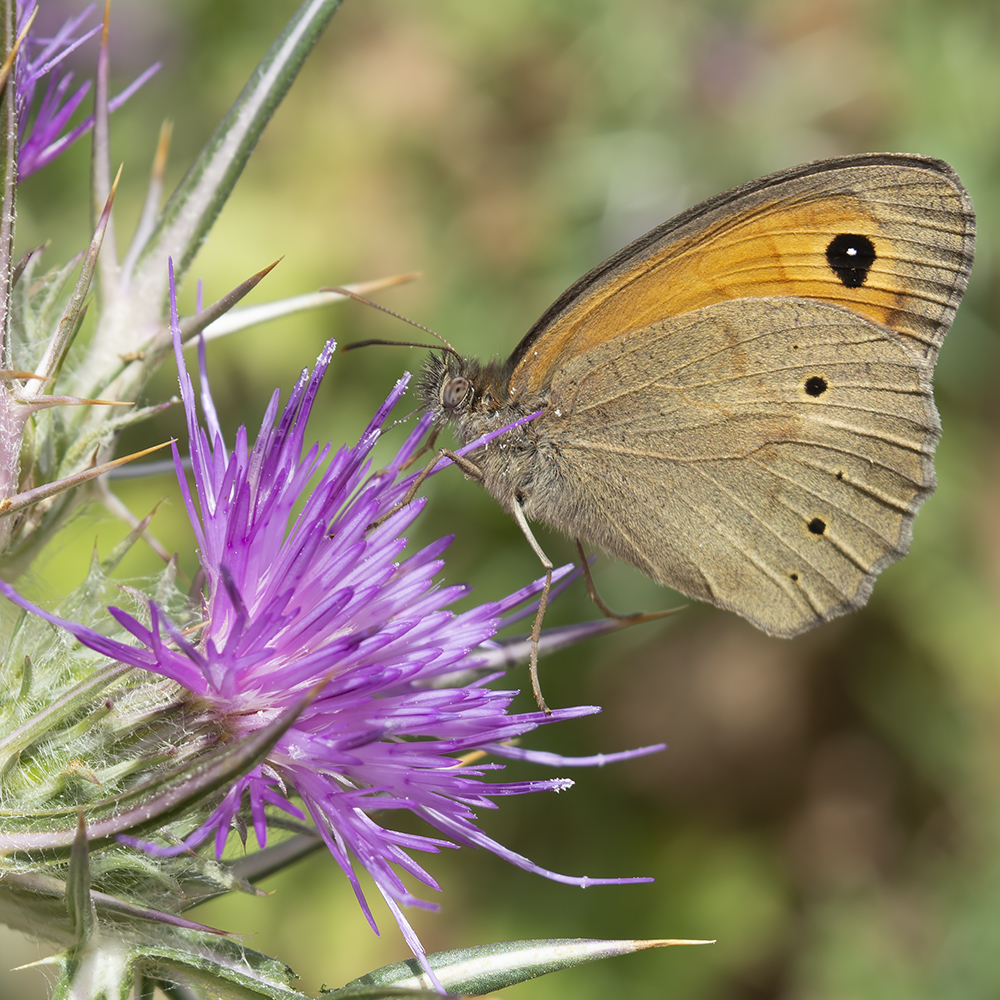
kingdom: Animalia
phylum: Arthropoda
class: Insecta
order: Lepidoptera
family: Nymphalidae
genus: Maniola
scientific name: Maniola jurtina
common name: Meadow brown
